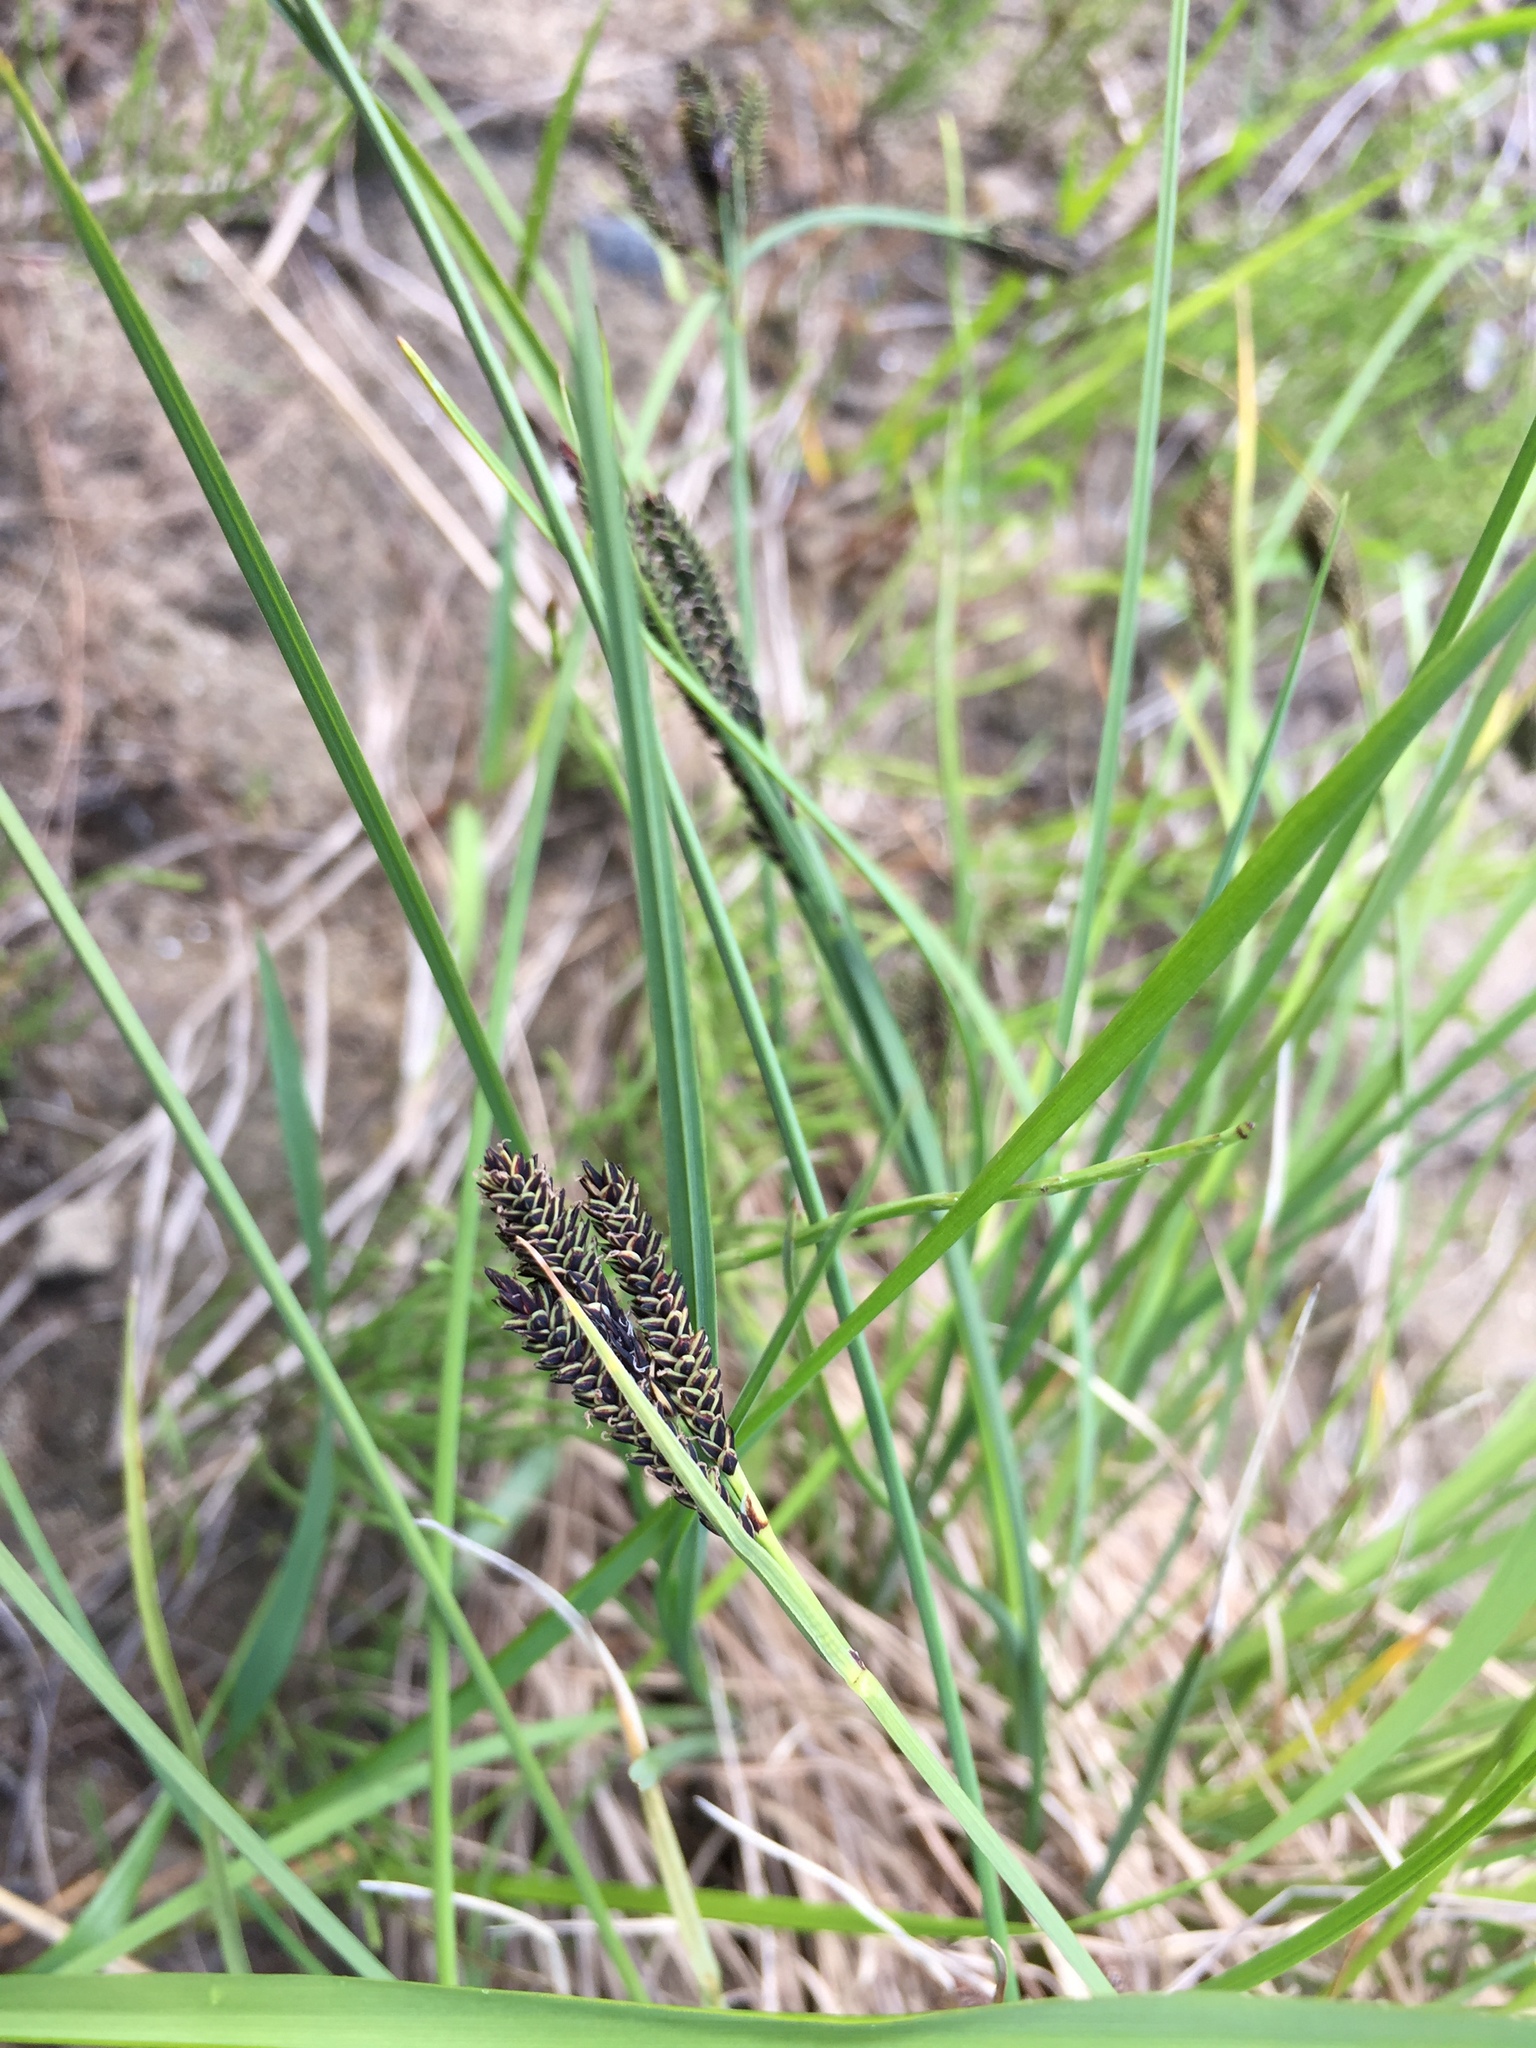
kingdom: Plantae
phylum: Tracheophyta
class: Liliopsida
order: Poales
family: Cyperaceae
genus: Carex
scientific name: Carex eleusinoides
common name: Goosegrass sedge
